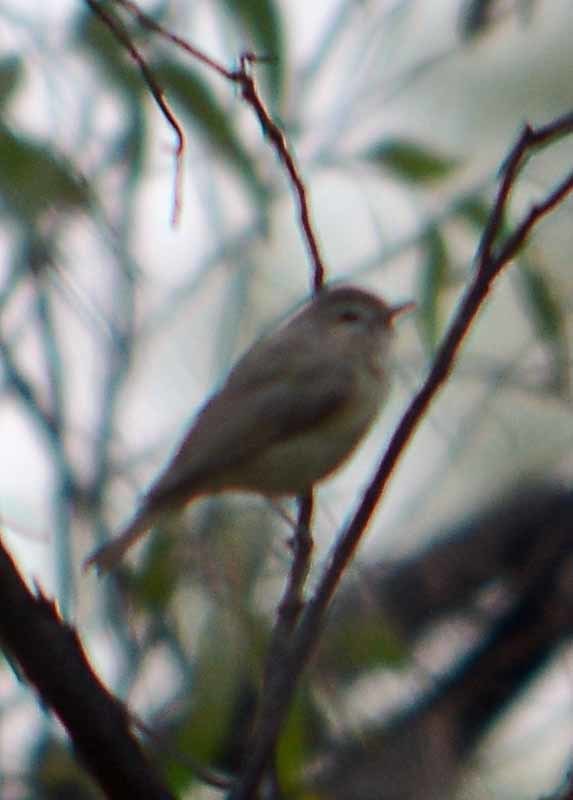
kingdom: Animalia
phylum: Chordata
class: Aves
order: Passeriformes
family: Vireonidae
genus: Vireo
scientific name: Vireo gilvus
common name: Warbling vireo
